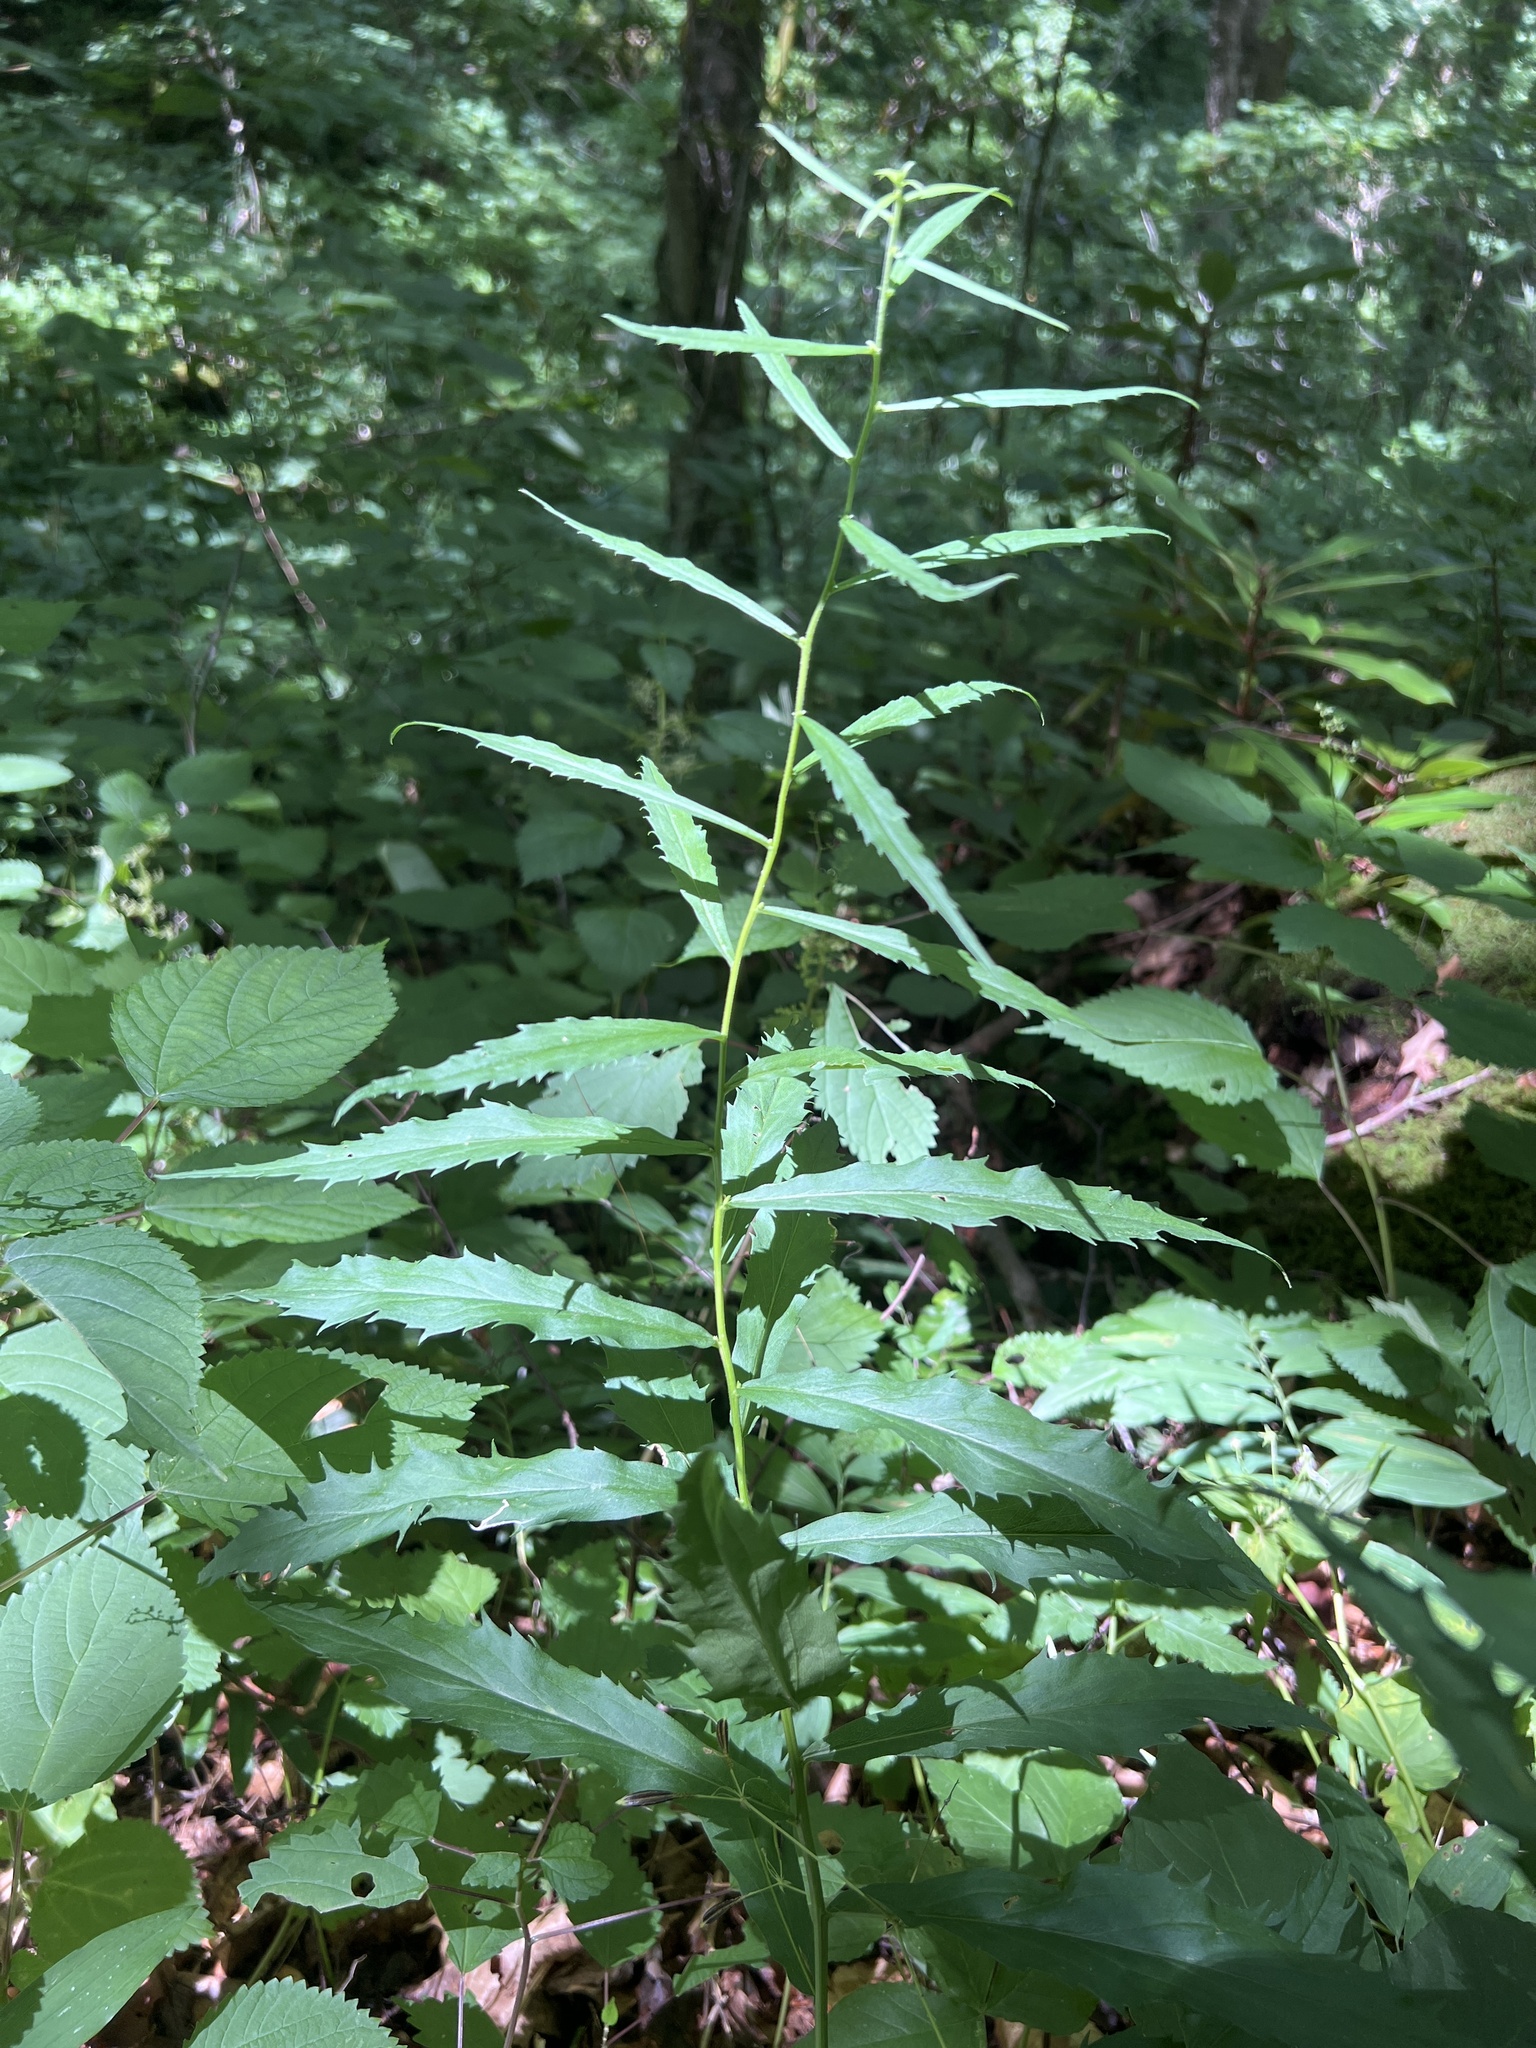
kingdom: Plantae
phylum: Tracheophyta
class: Magnoliopsida
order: Asterales
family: Asteraceae
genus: Solidago
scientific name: Solidago curtisii
